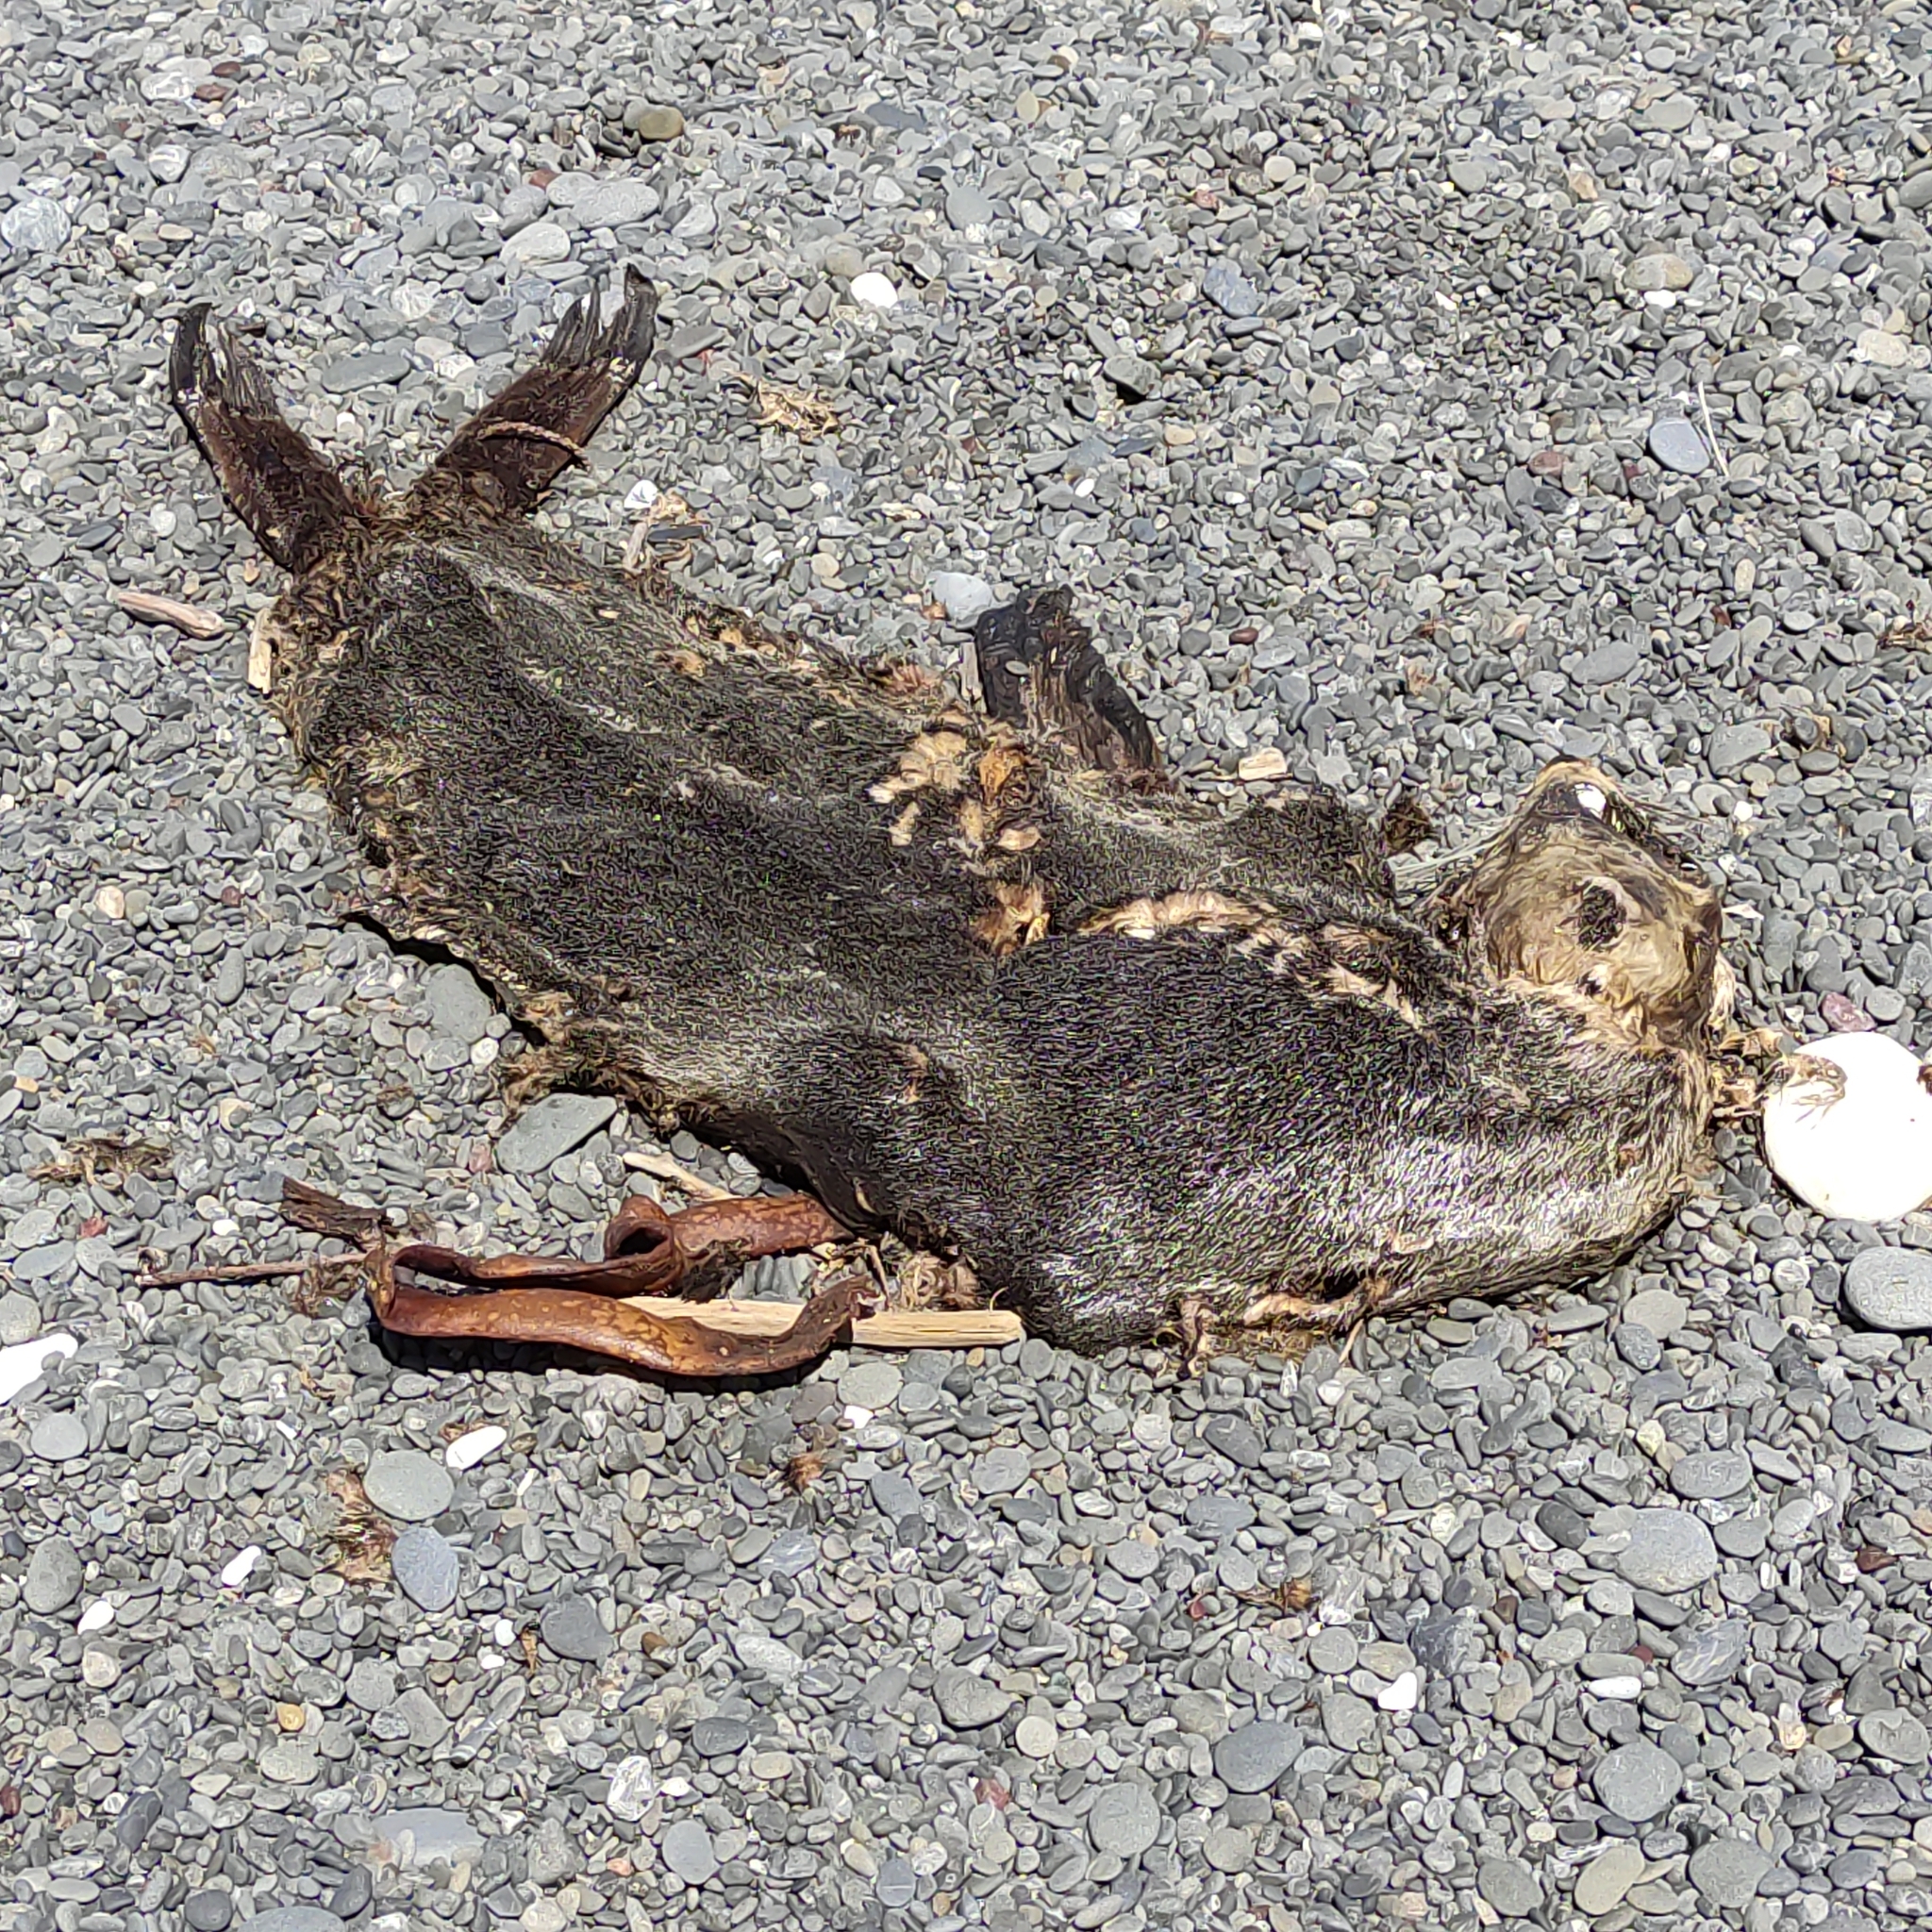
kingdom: Animalia
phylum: Chordata
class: Mammalia
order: Carnivora
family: Otariidae
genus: Arctocephalus
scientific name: Arctocephalus forsteri
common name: New zealand fur seal
